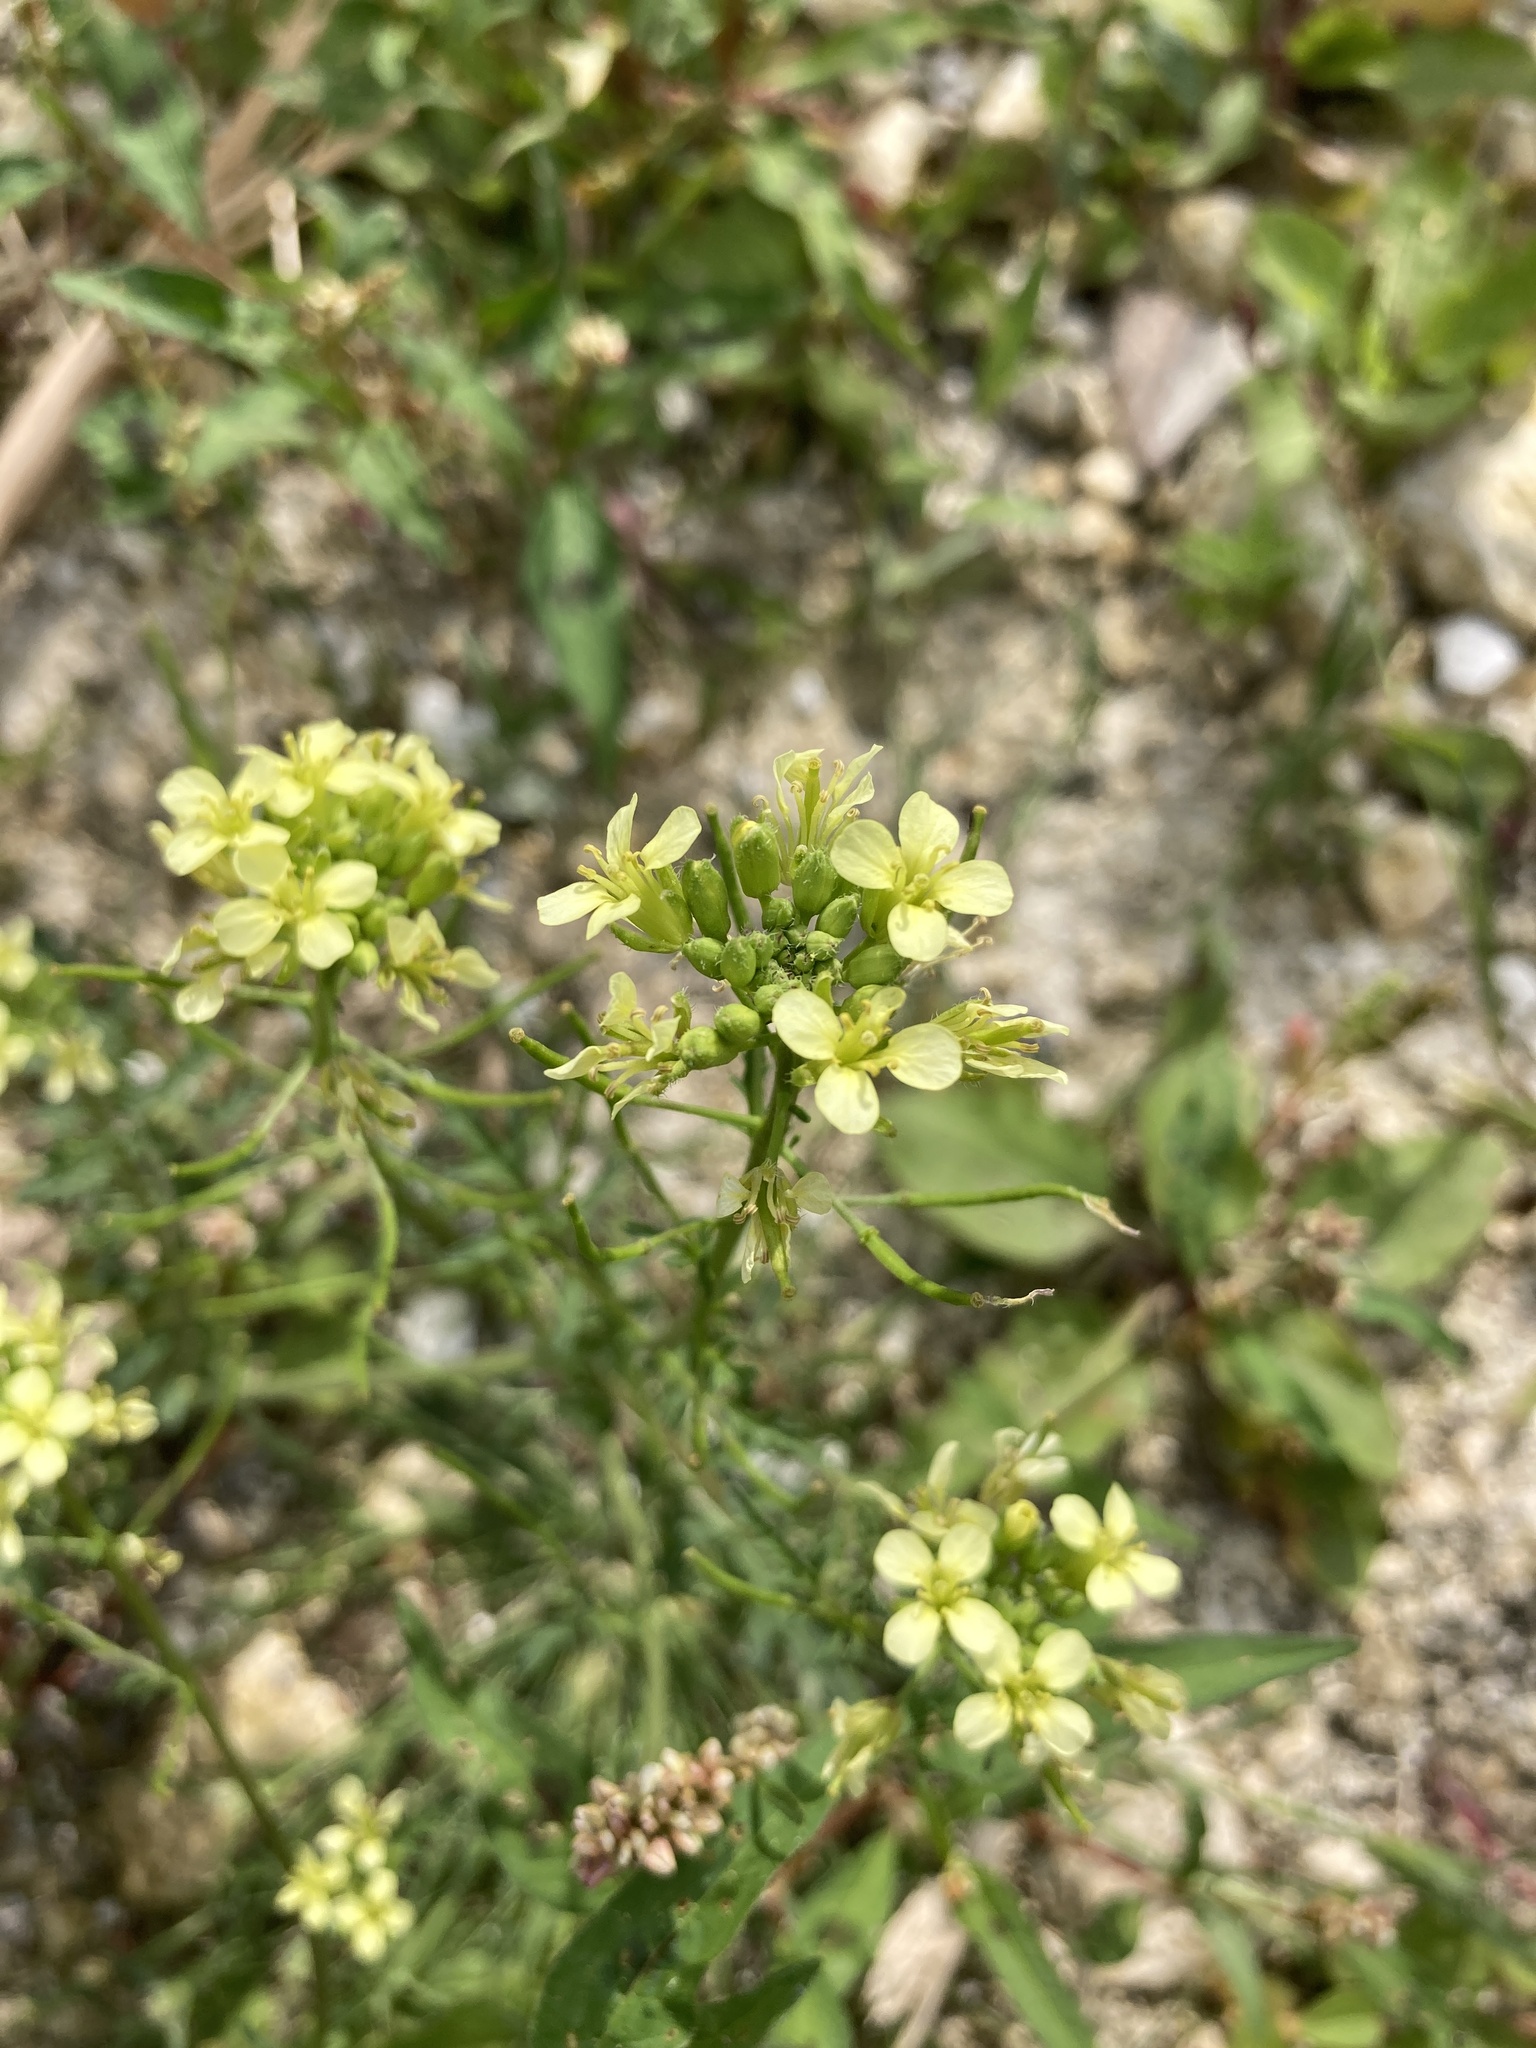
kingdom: Plantae
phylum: Tracheophyta
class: Magnoliopsida
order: Brassicales
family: Brassicaceae
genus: Erucastrum
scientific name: Erucastrum gallicum
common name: Hairy rocket
